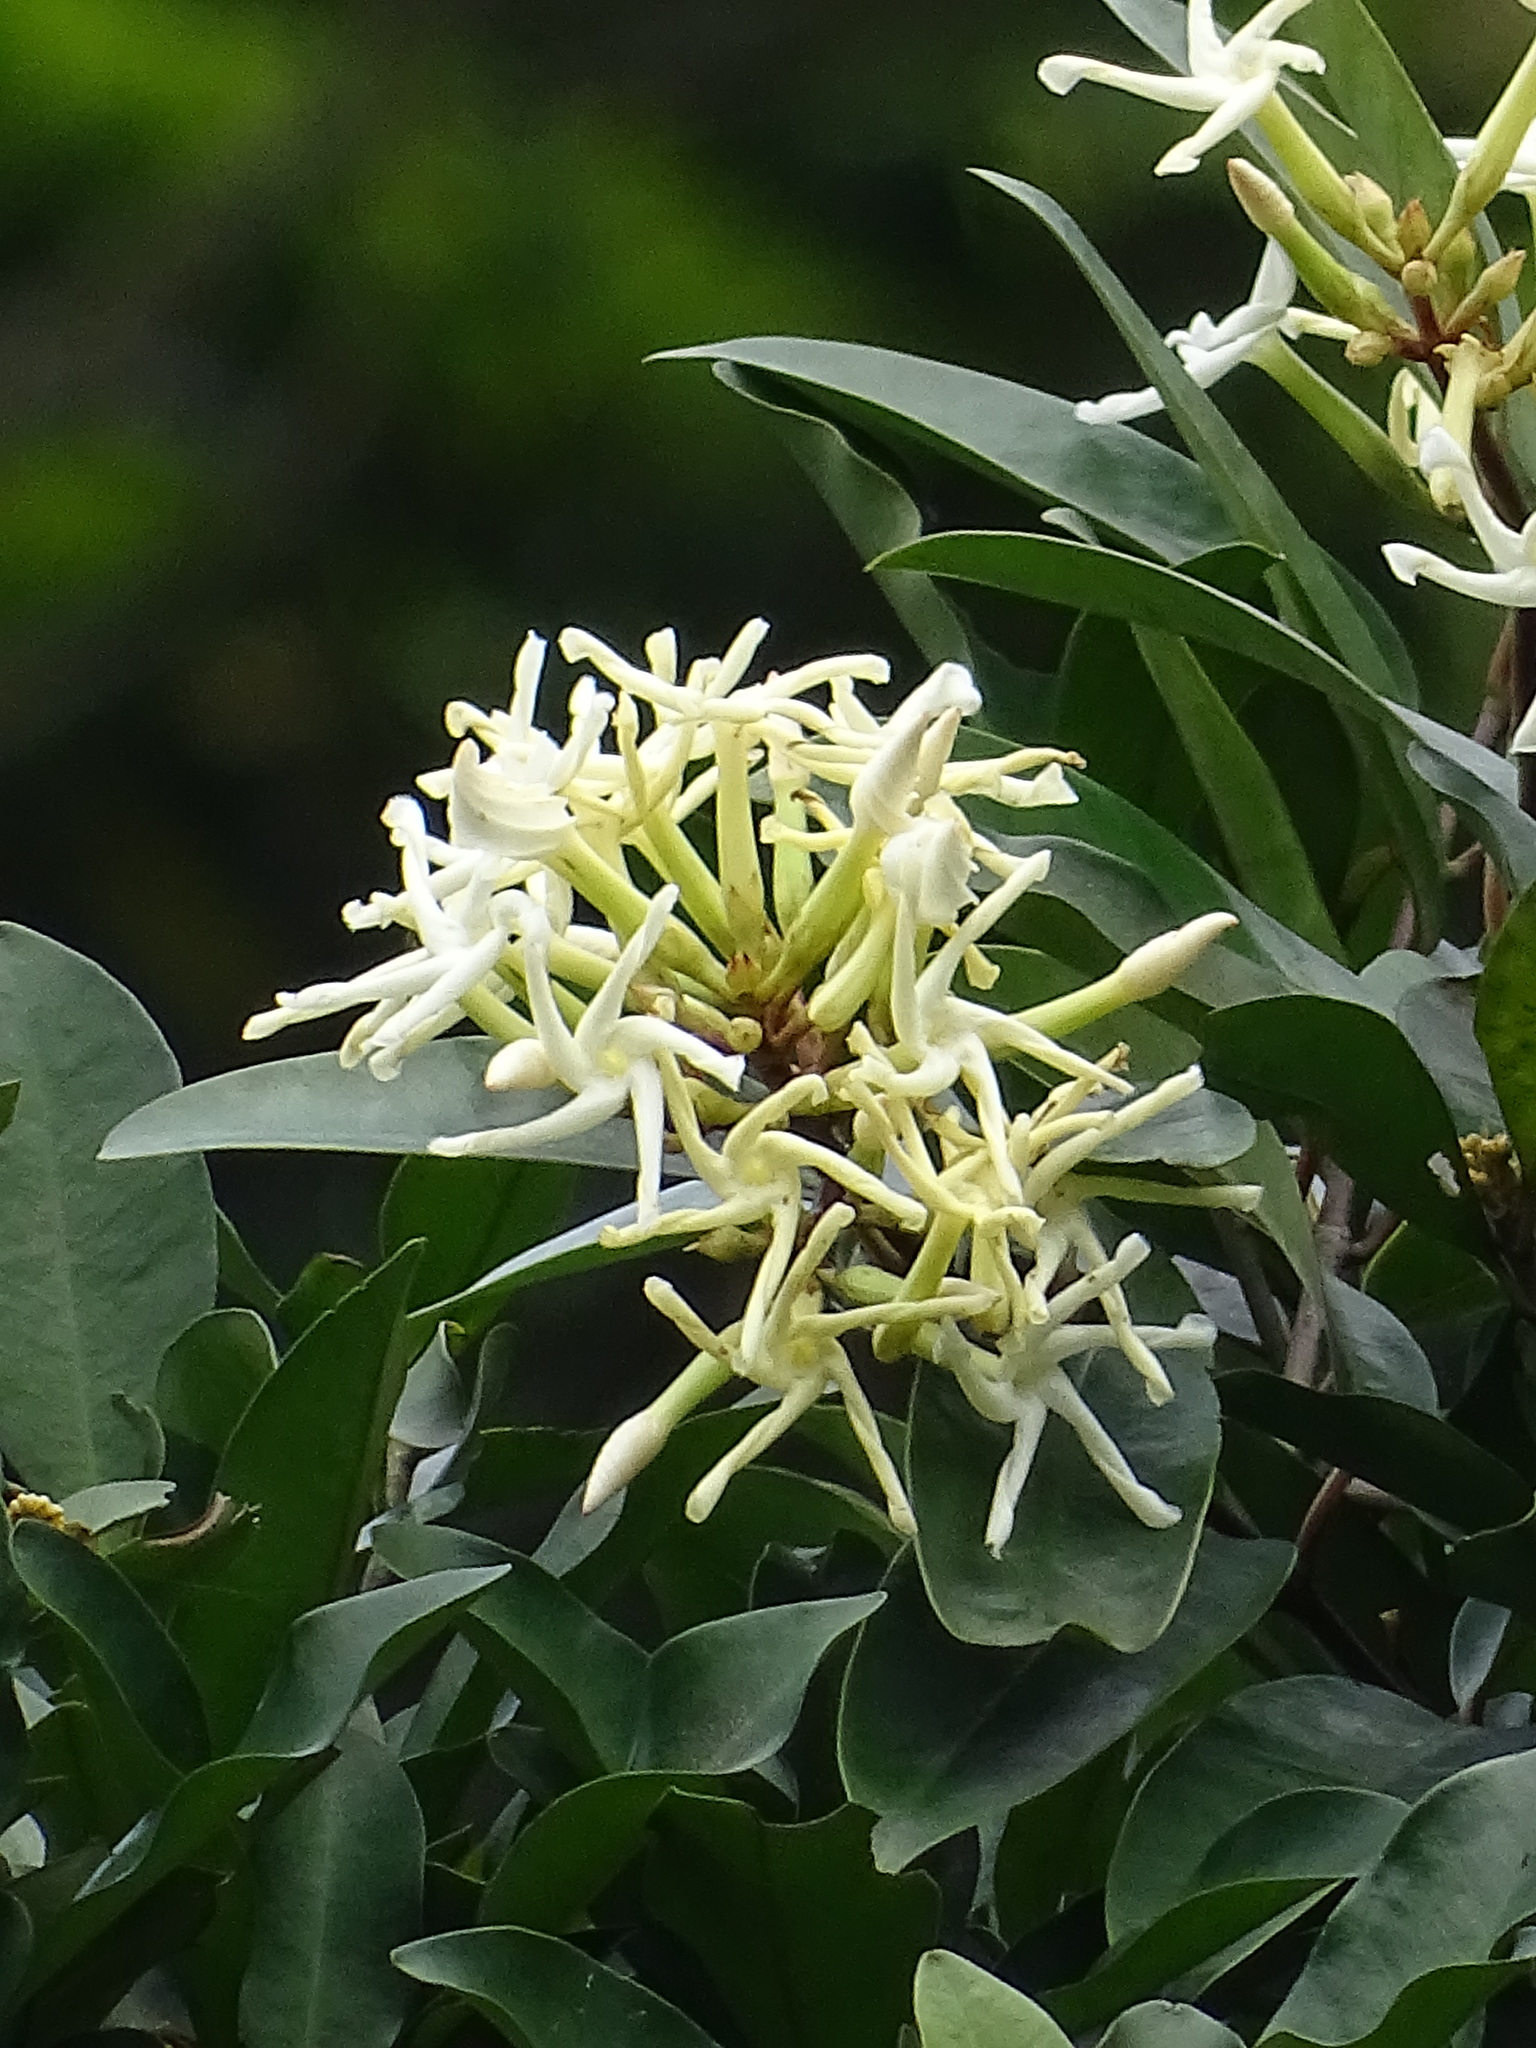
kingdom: Plantae
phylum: Tracheophyta
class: Magnoliopsida
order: Gentianales
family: Apocynaceae
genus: Anodendron
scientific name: Anodendron benthamianum
